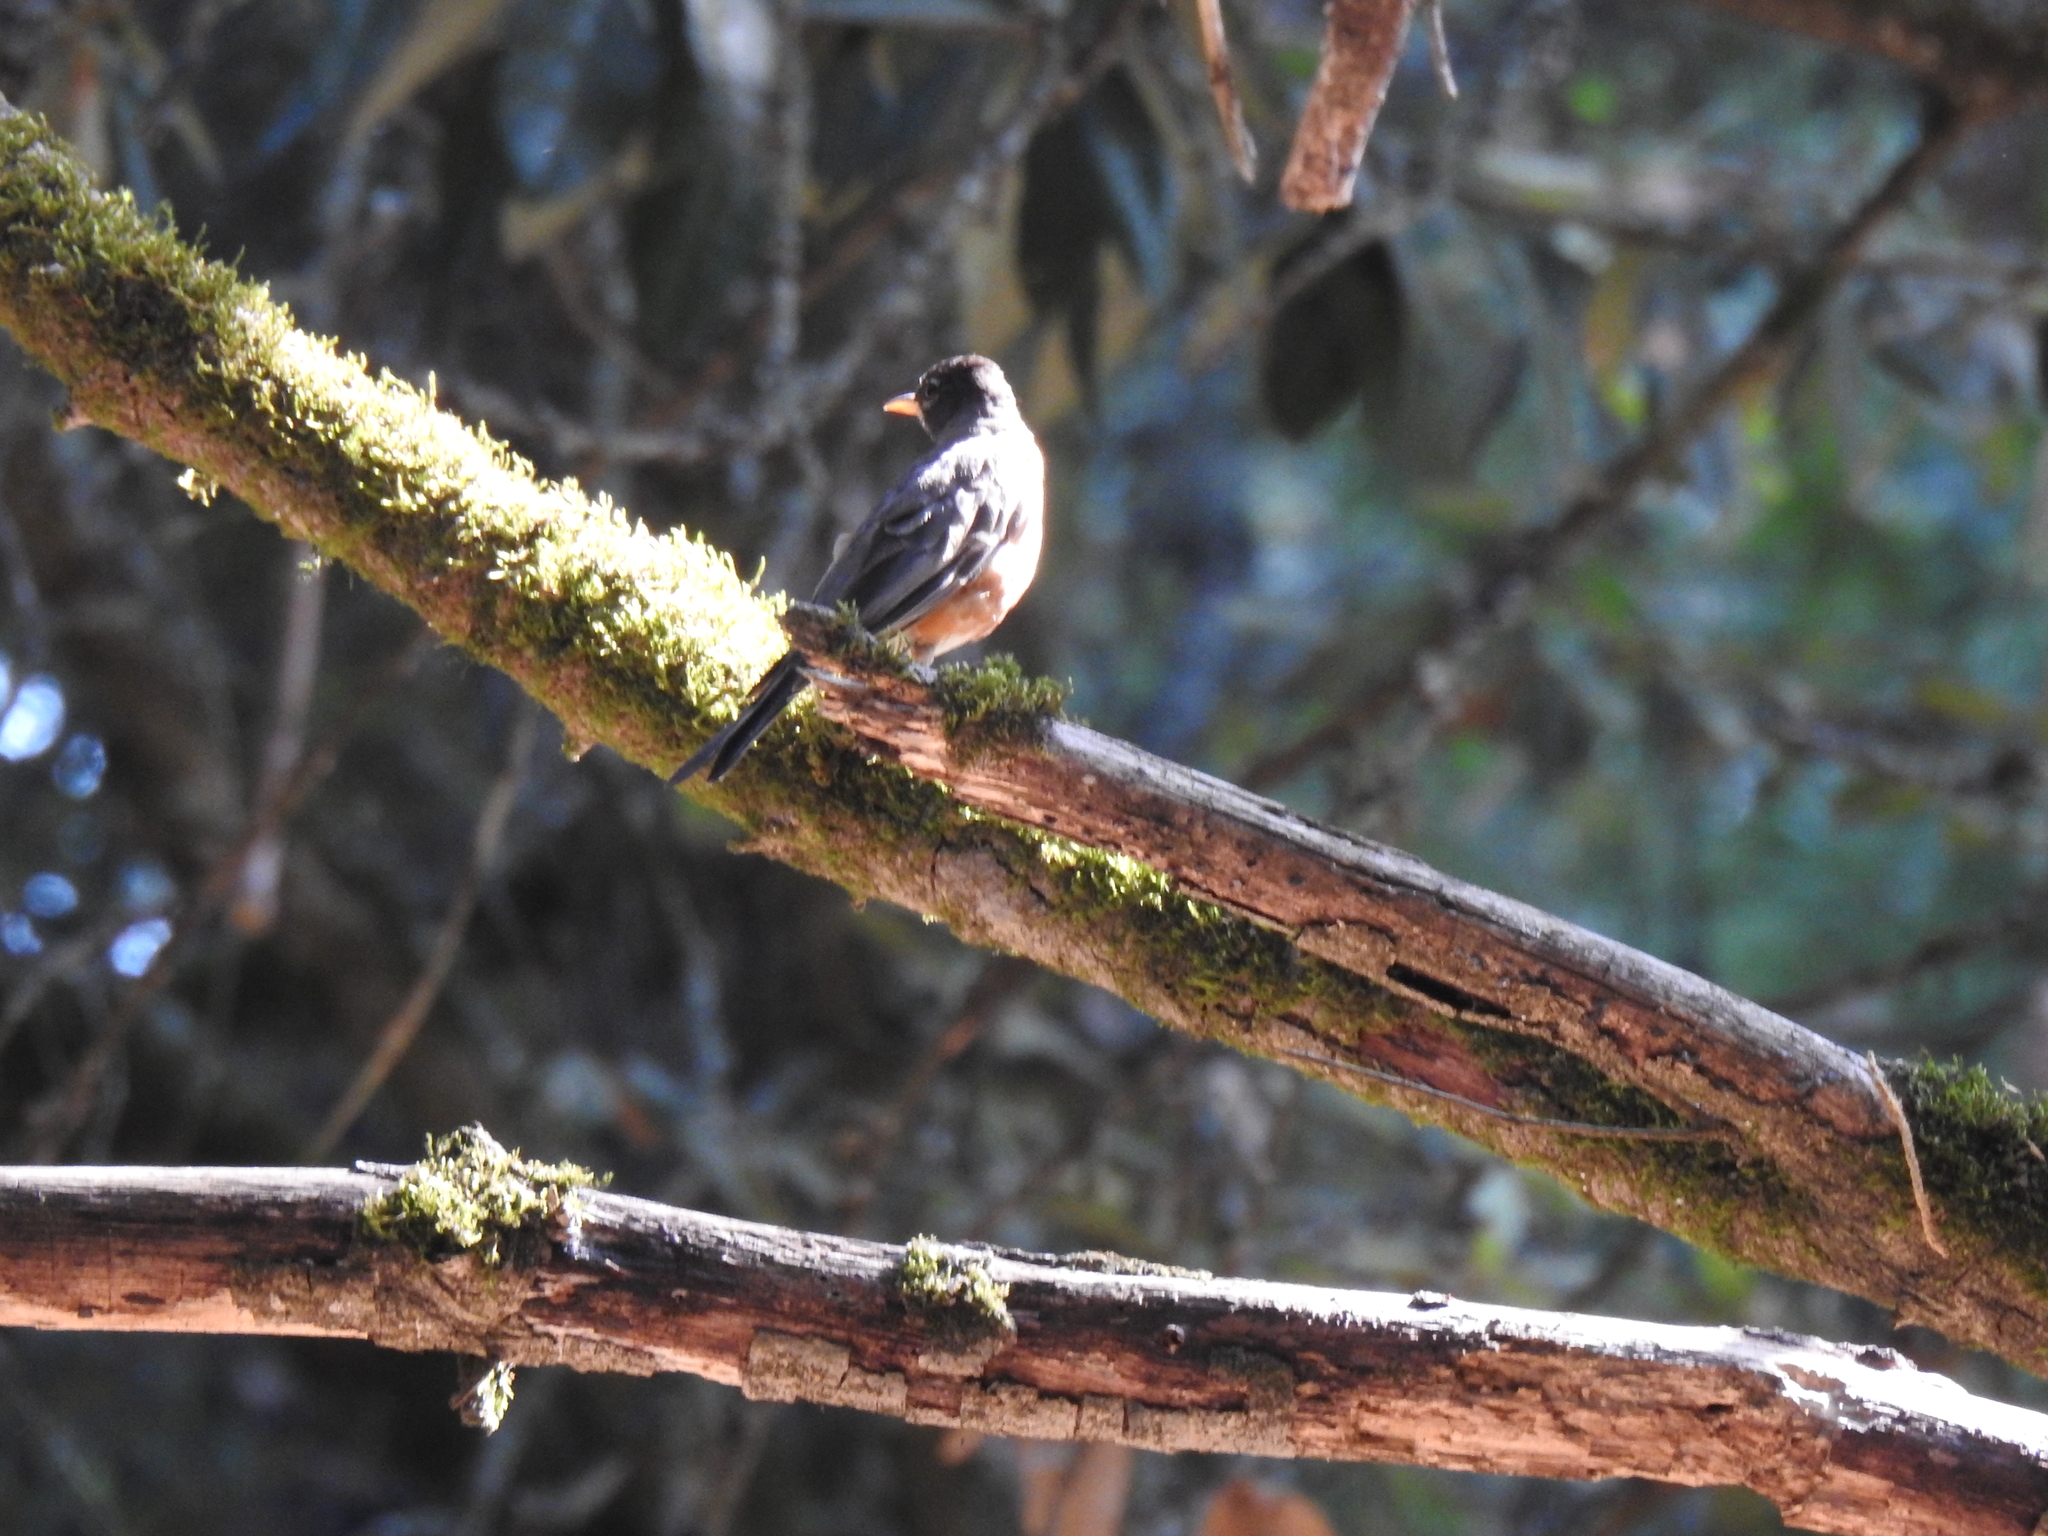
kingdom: Animalia
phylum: Chordata
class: Aves
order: Passeriformes
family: Turdidae
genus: Turdus
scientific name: Turdus migratorius
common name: American robin
